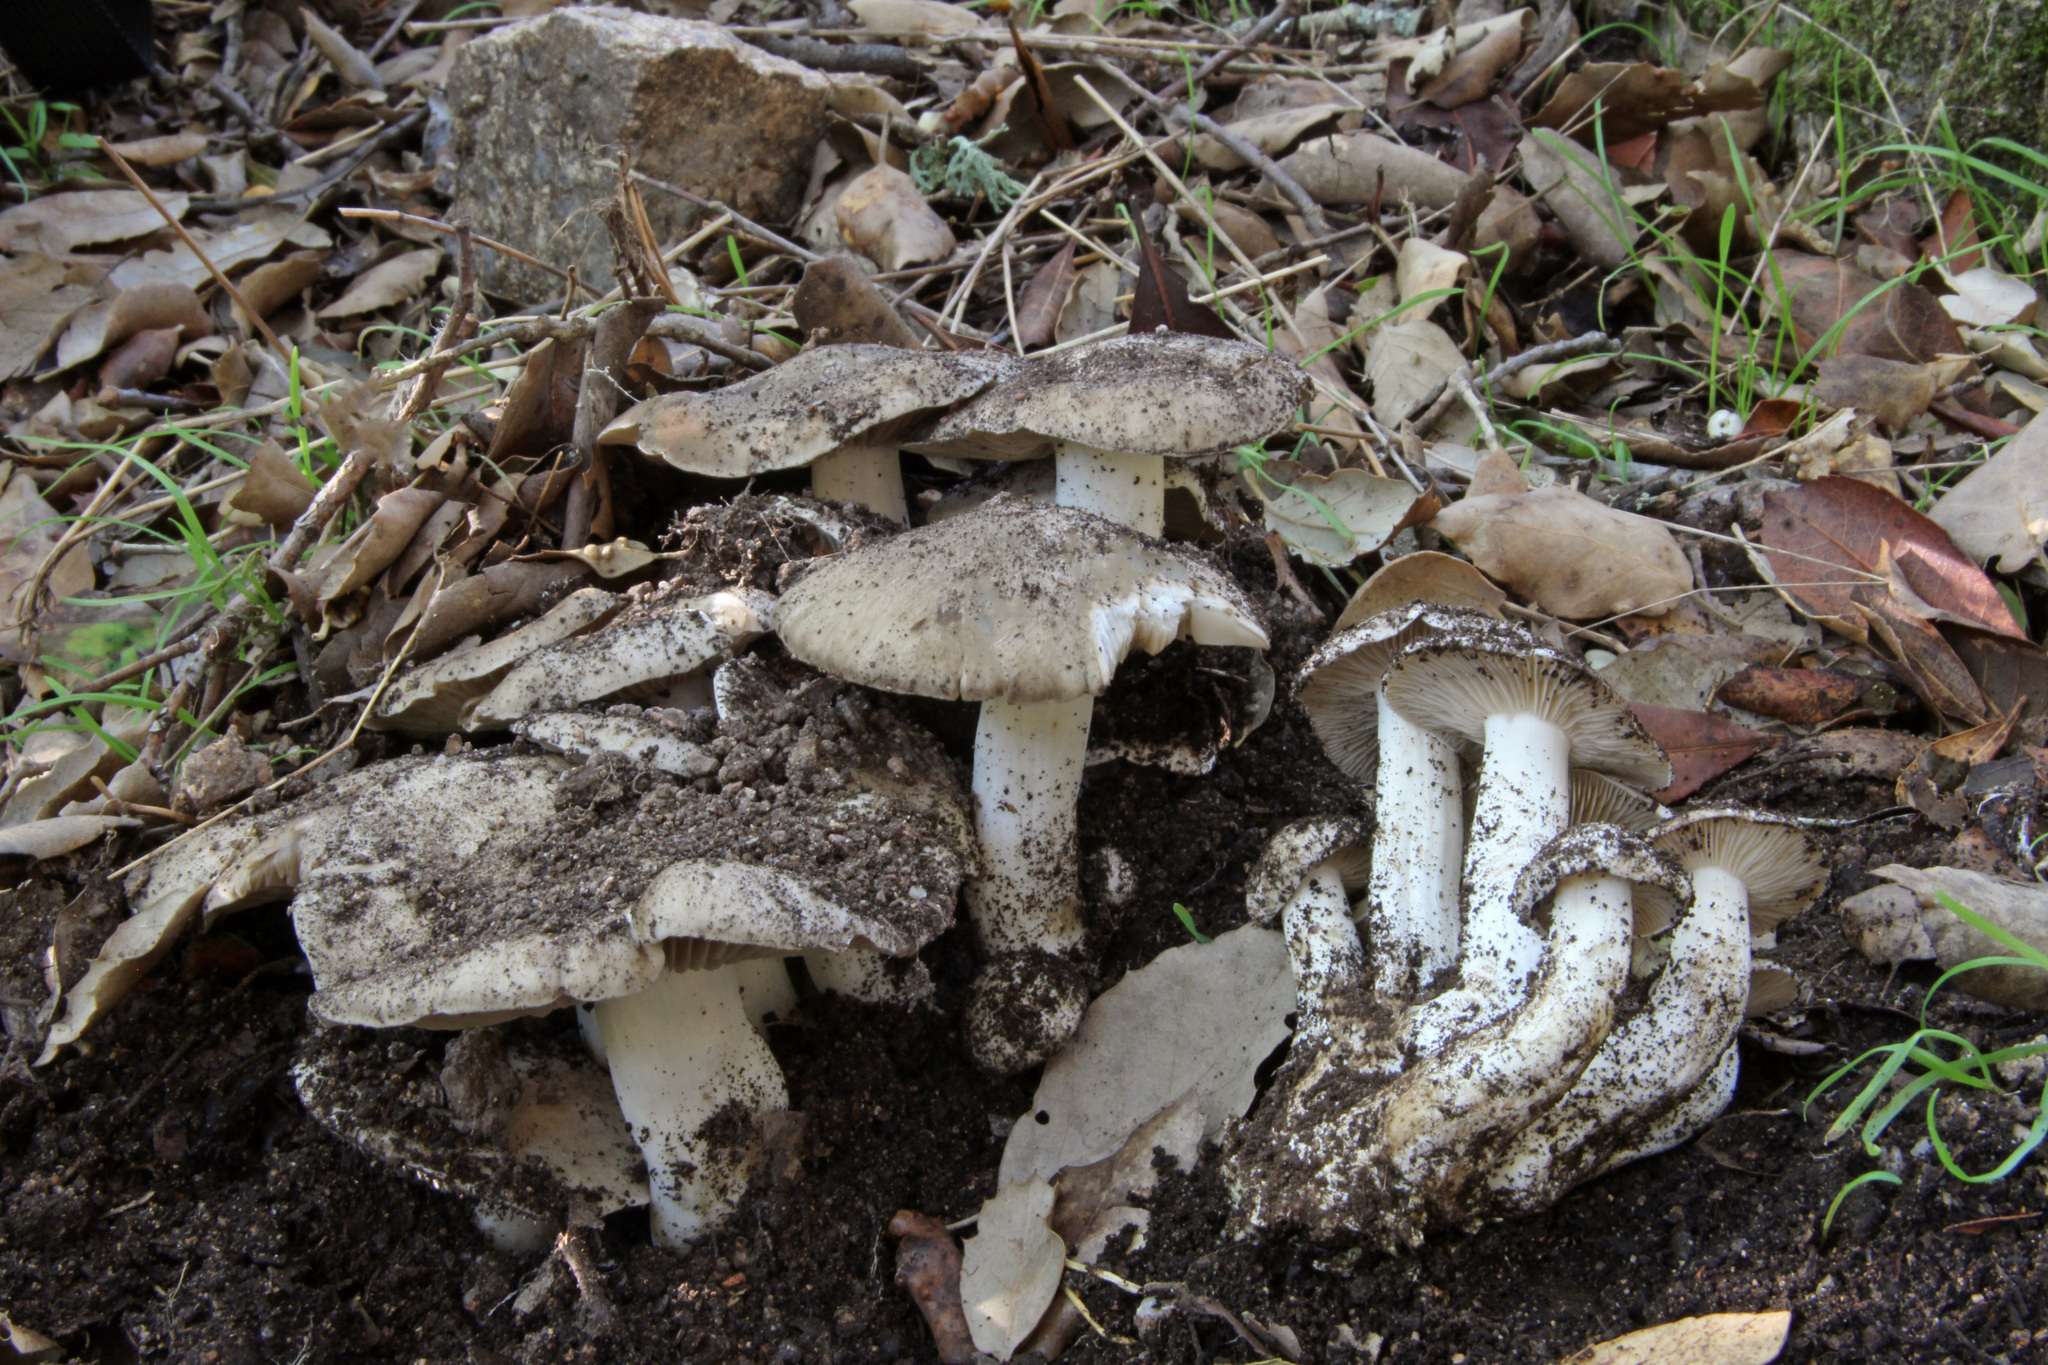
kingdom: Fungi
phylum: Basidiomycota
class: Agaricomycetes
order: Agaricales
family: Lyophyllaceae
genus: Lyophyllum
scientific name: Lyophyllum decastes
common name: Clustered domecap
